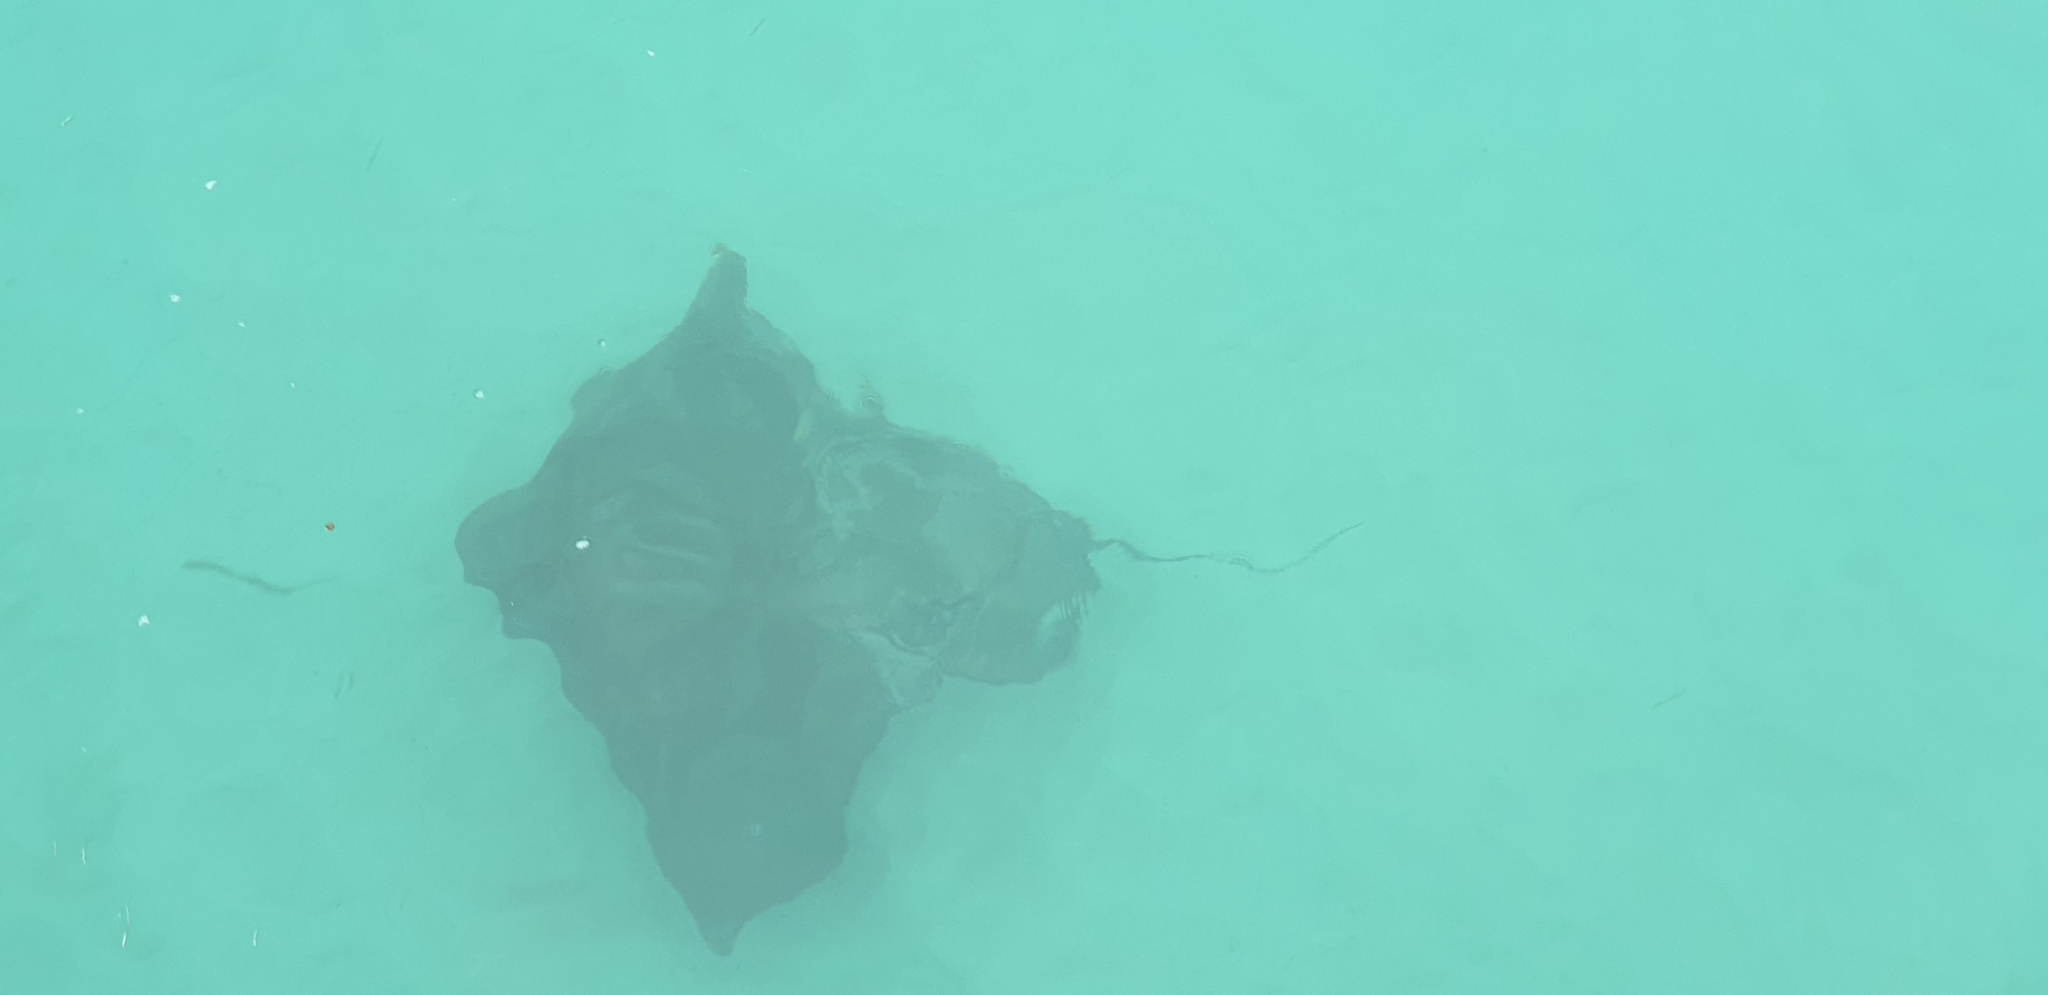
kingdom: Animalia
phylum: Chordata
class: Elasmobranchii
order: Myliobatiformes
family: Myliobatidae
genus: Myliobatis
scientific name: Myliobatis tenuicaudatus
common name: Eagle ray
